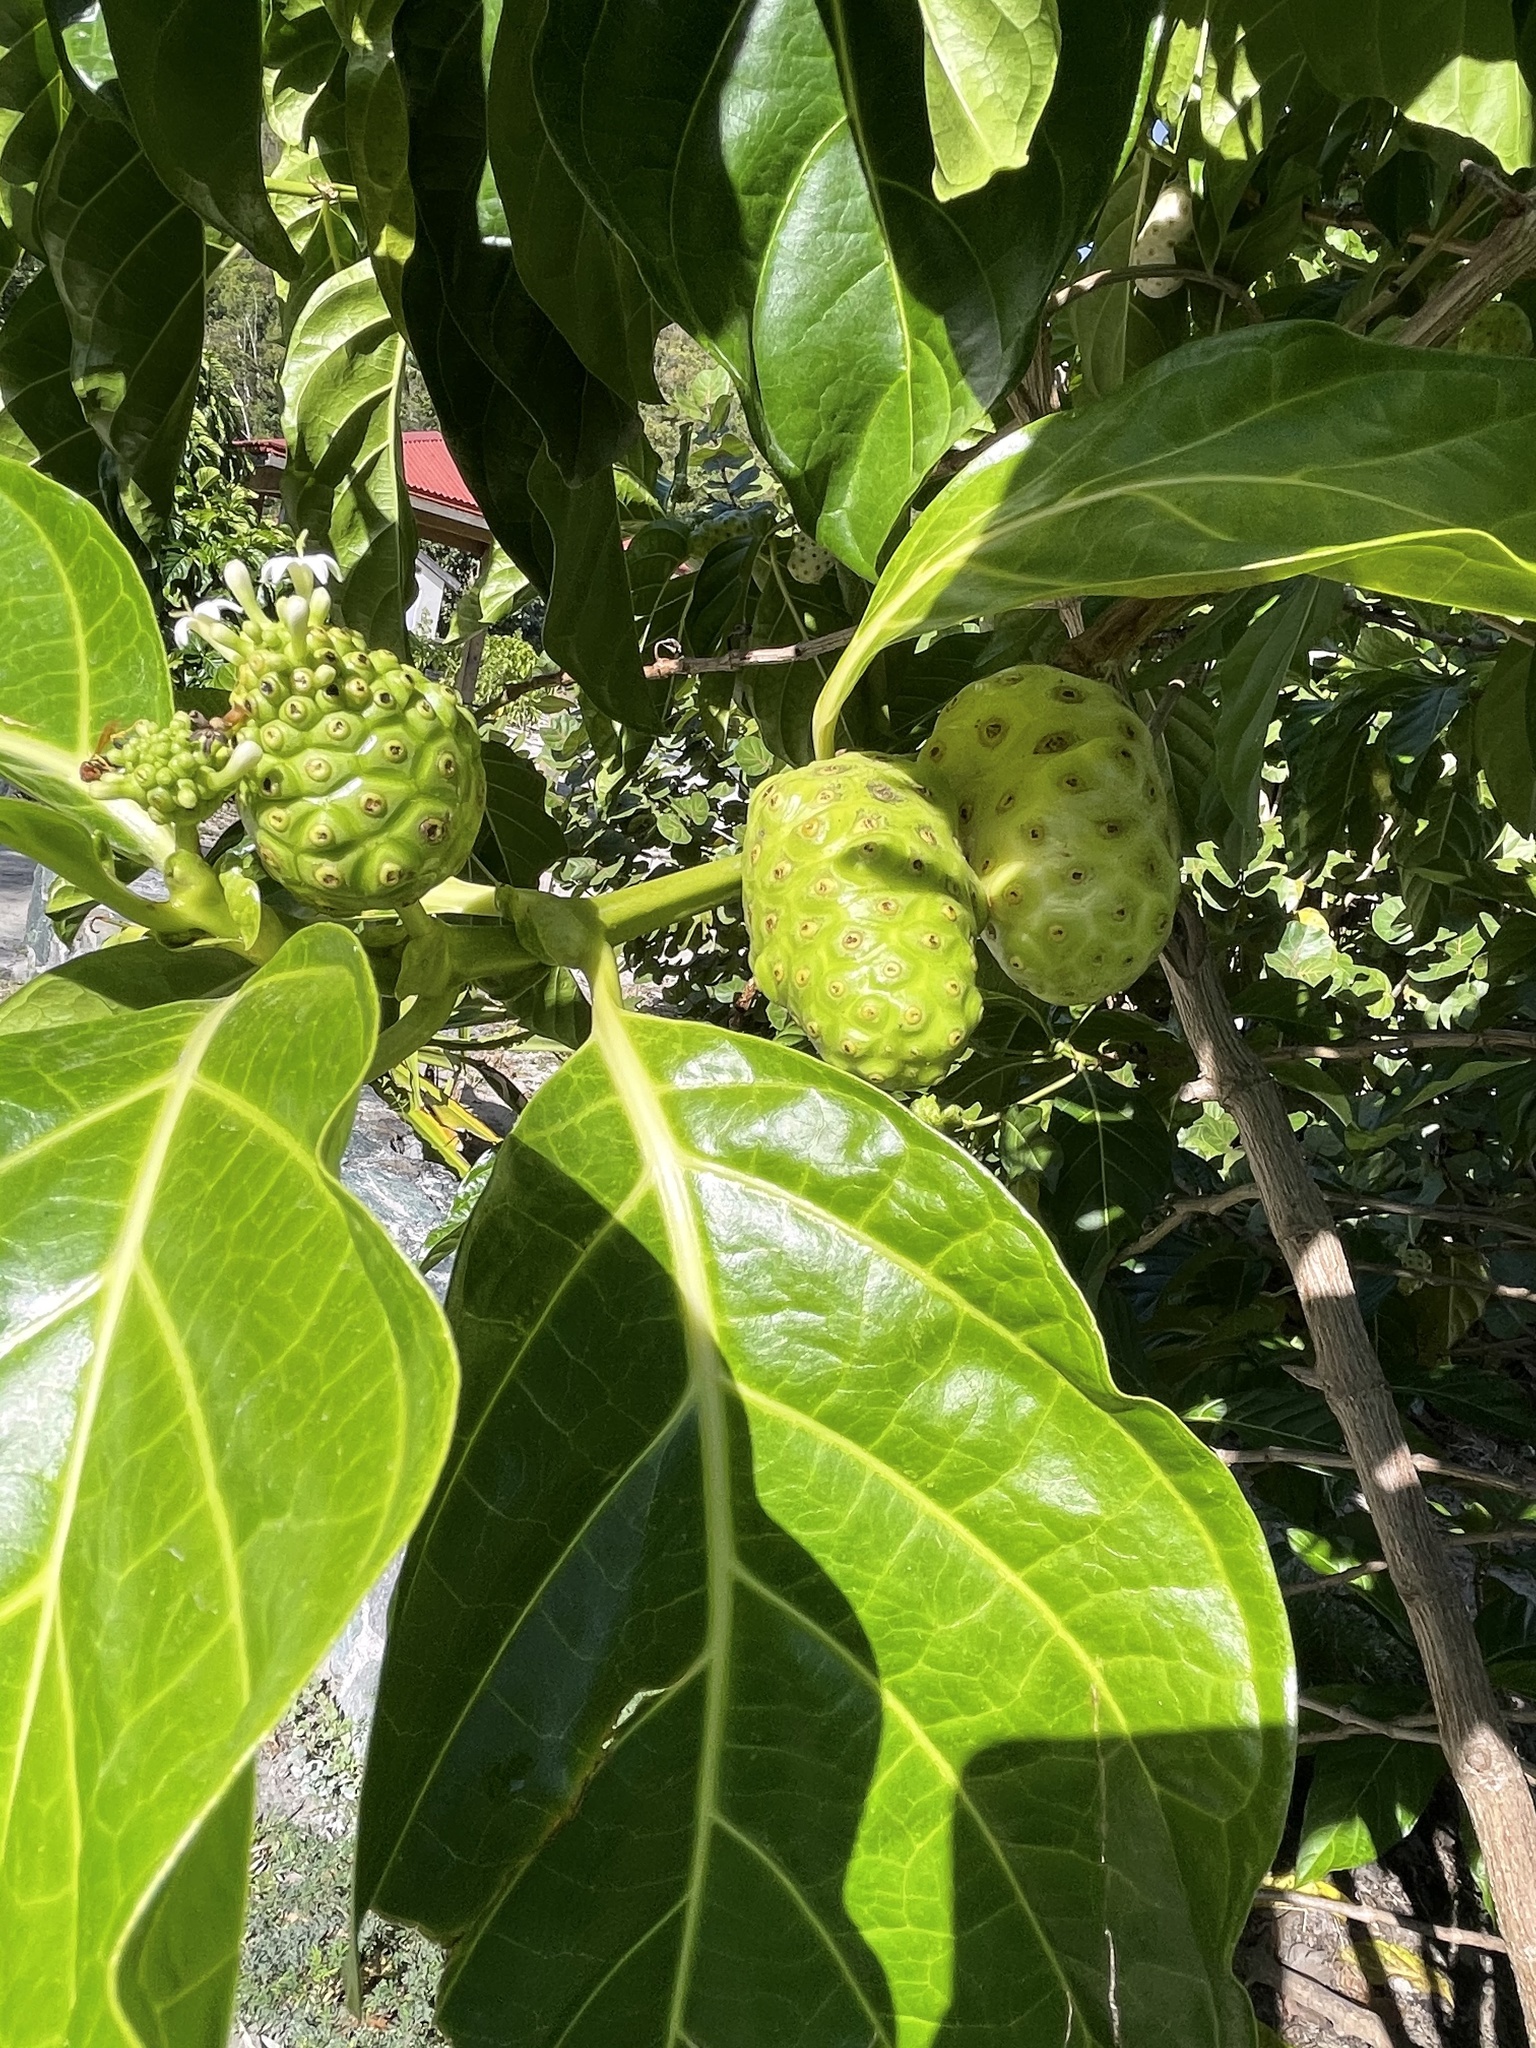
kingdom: Plantae
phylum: Tracheophyta
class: Magnoliopsida
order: Gentianales
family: Rubiaceae
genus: Morinda
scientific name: Morinda citrifolia
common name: Indian-mulberry
